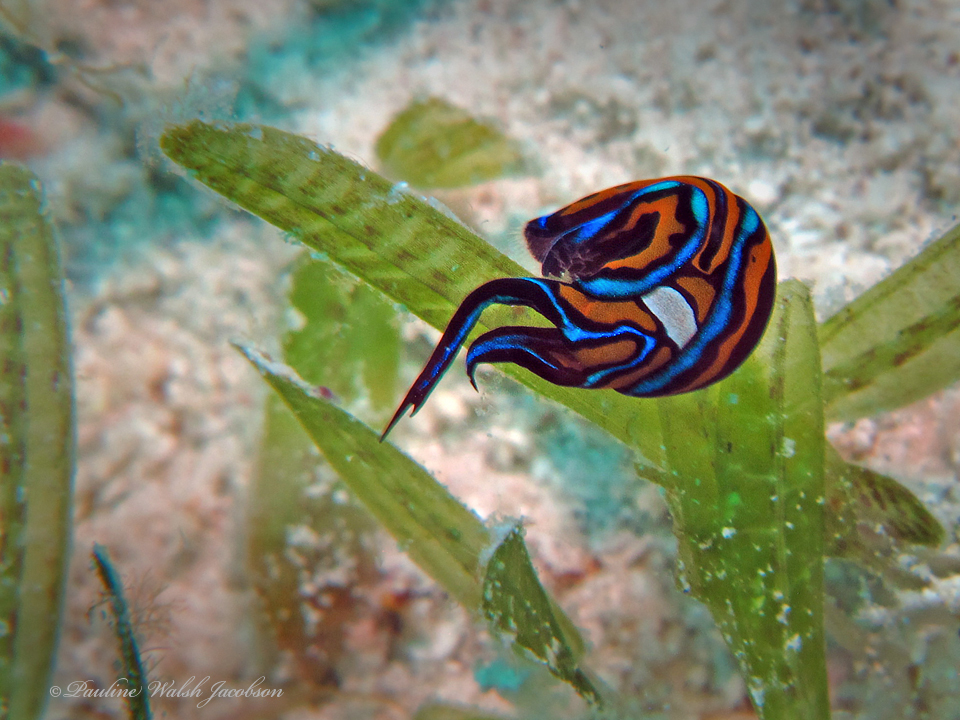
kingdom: Animalia
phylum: Mollusca
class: Gastropoda
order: Cephalaspidea
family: Aglajidae
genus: Chelidonura
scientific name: Chelidonura hirundinina
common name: Leech headshield slug
